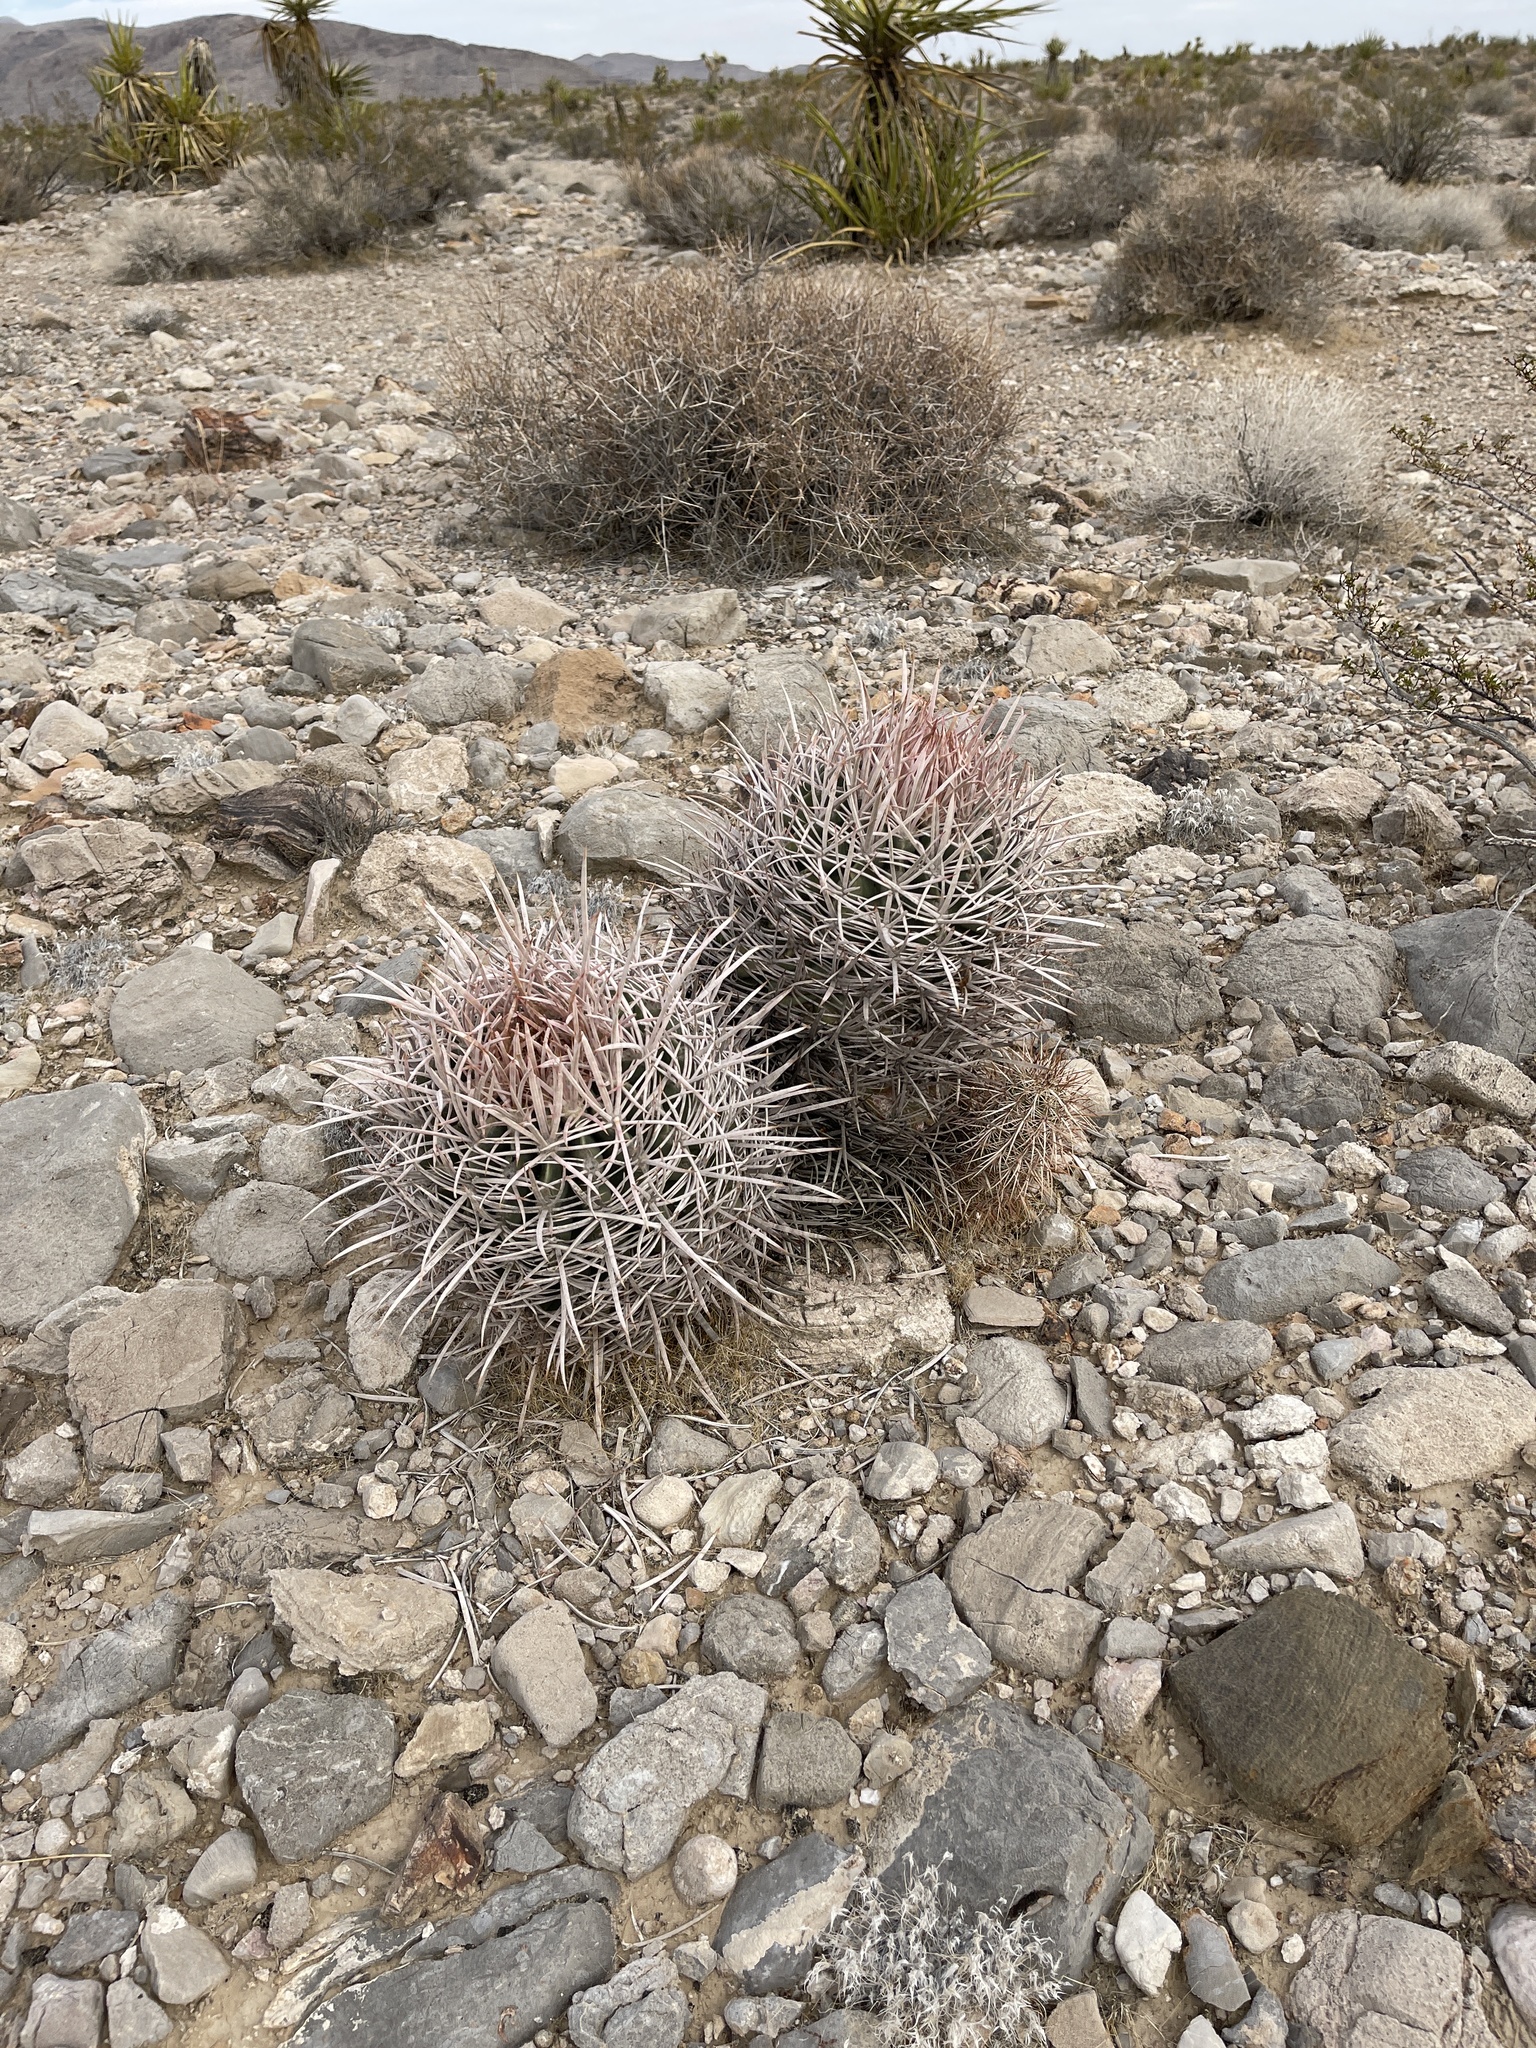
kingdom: Plantae
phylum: Tracheophyta
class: Magnoliopsida
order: Caryophyllales
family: Cactaceae
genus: Echinocactus
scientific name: Echinocactus polycephalus
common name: Cottontop cactus
